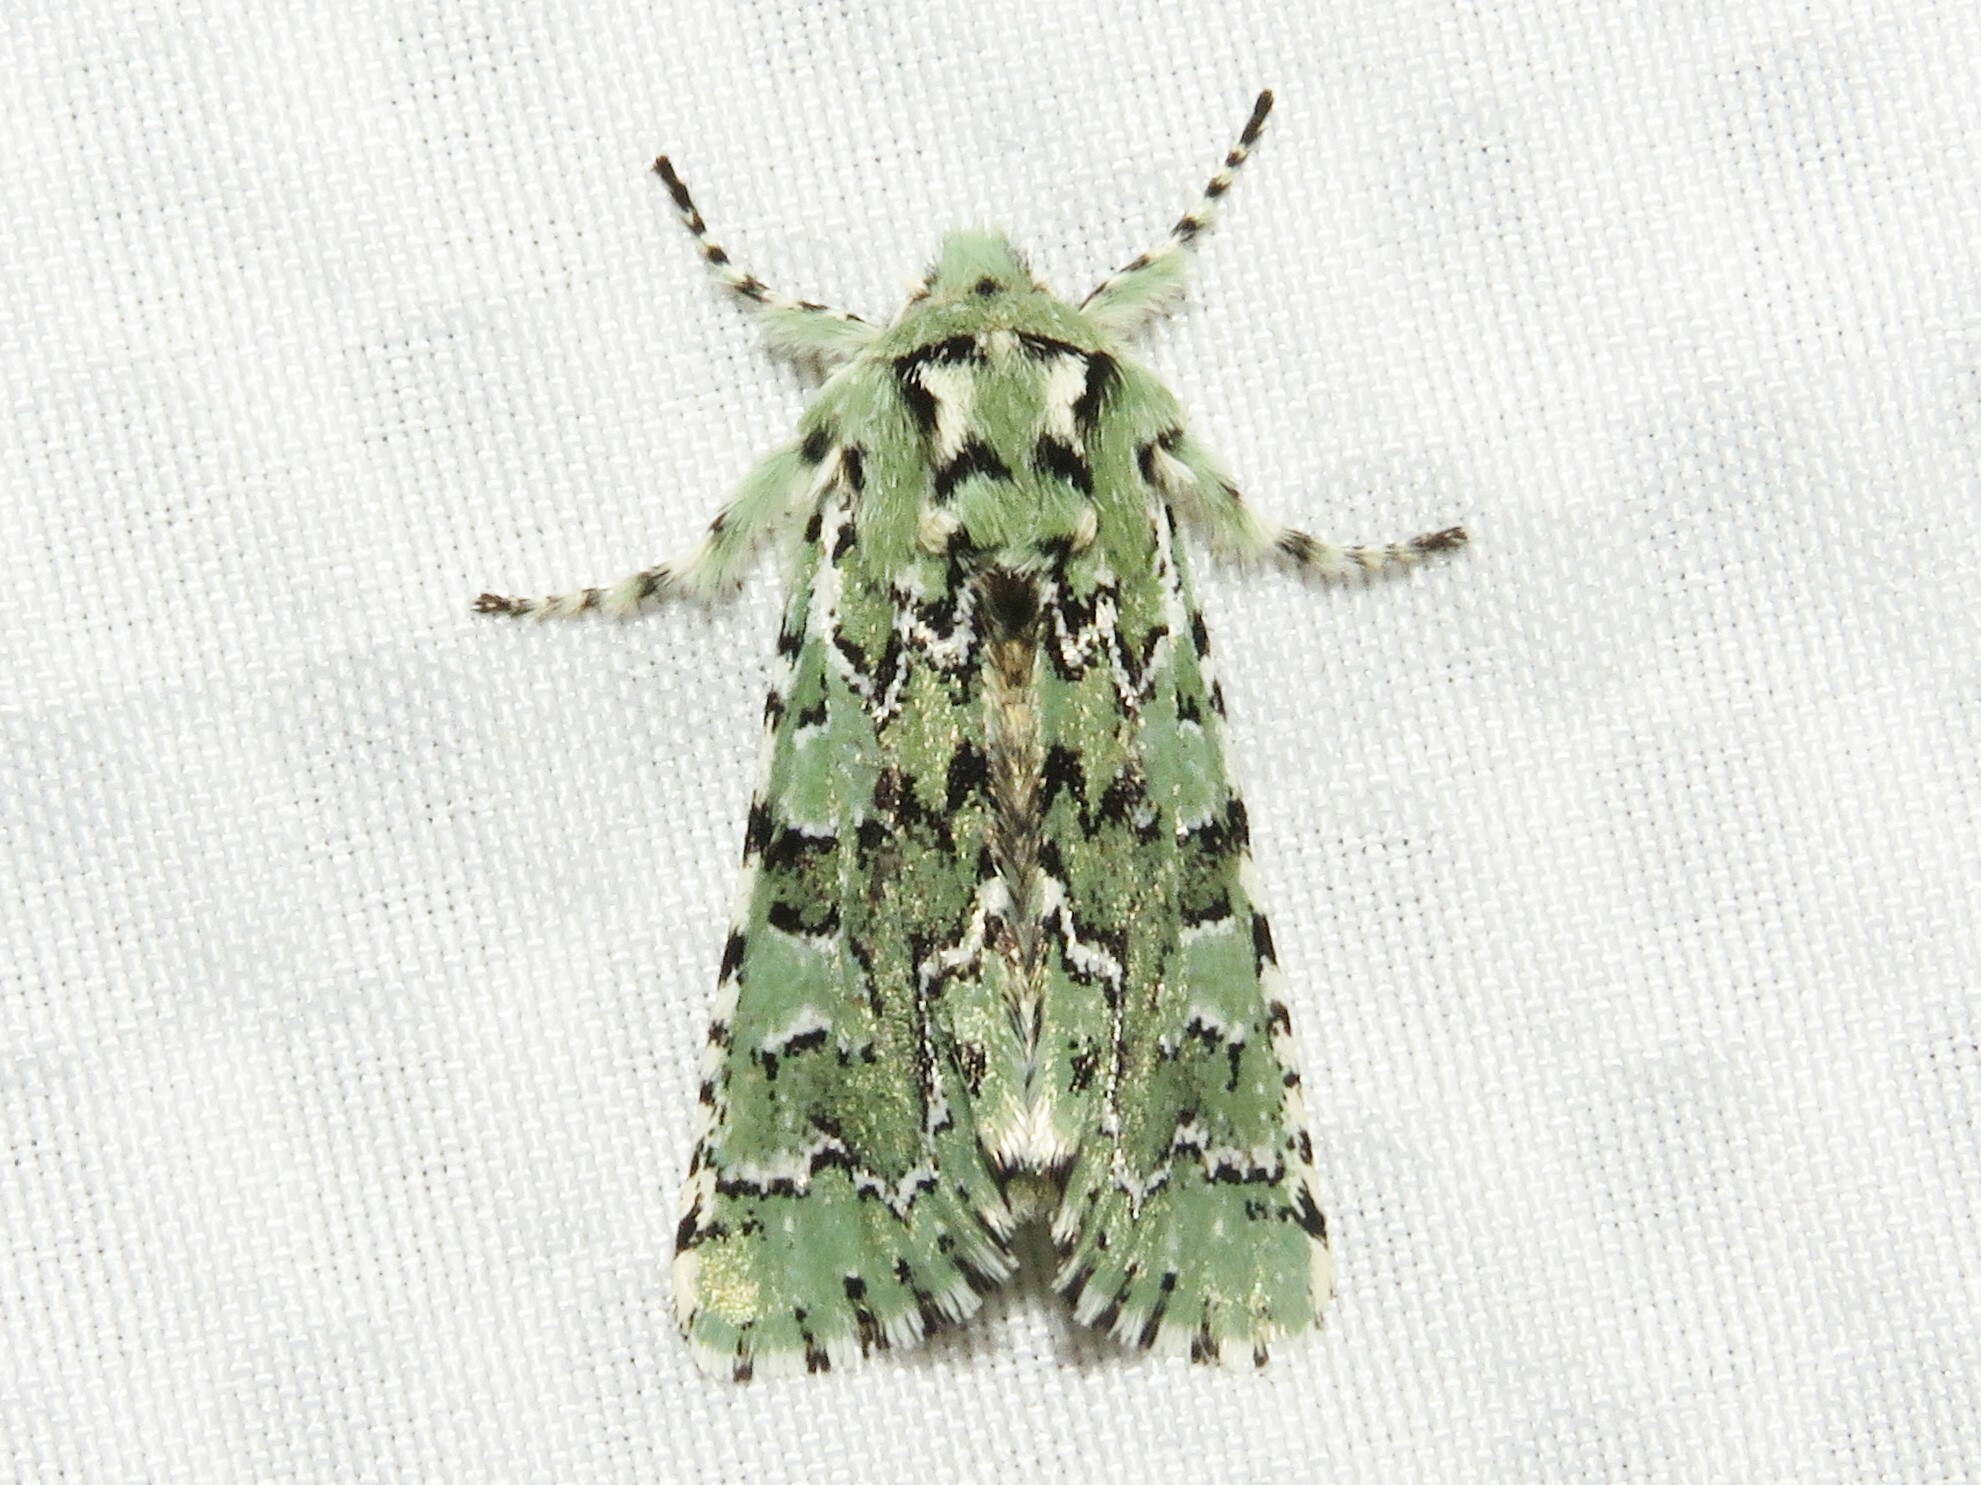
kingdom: Animalia
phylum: Arthropoda
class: Insecta
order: Lepidoptera
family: Noctuidae
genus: Feralia
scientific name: Feralia jocosa
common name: Joker
